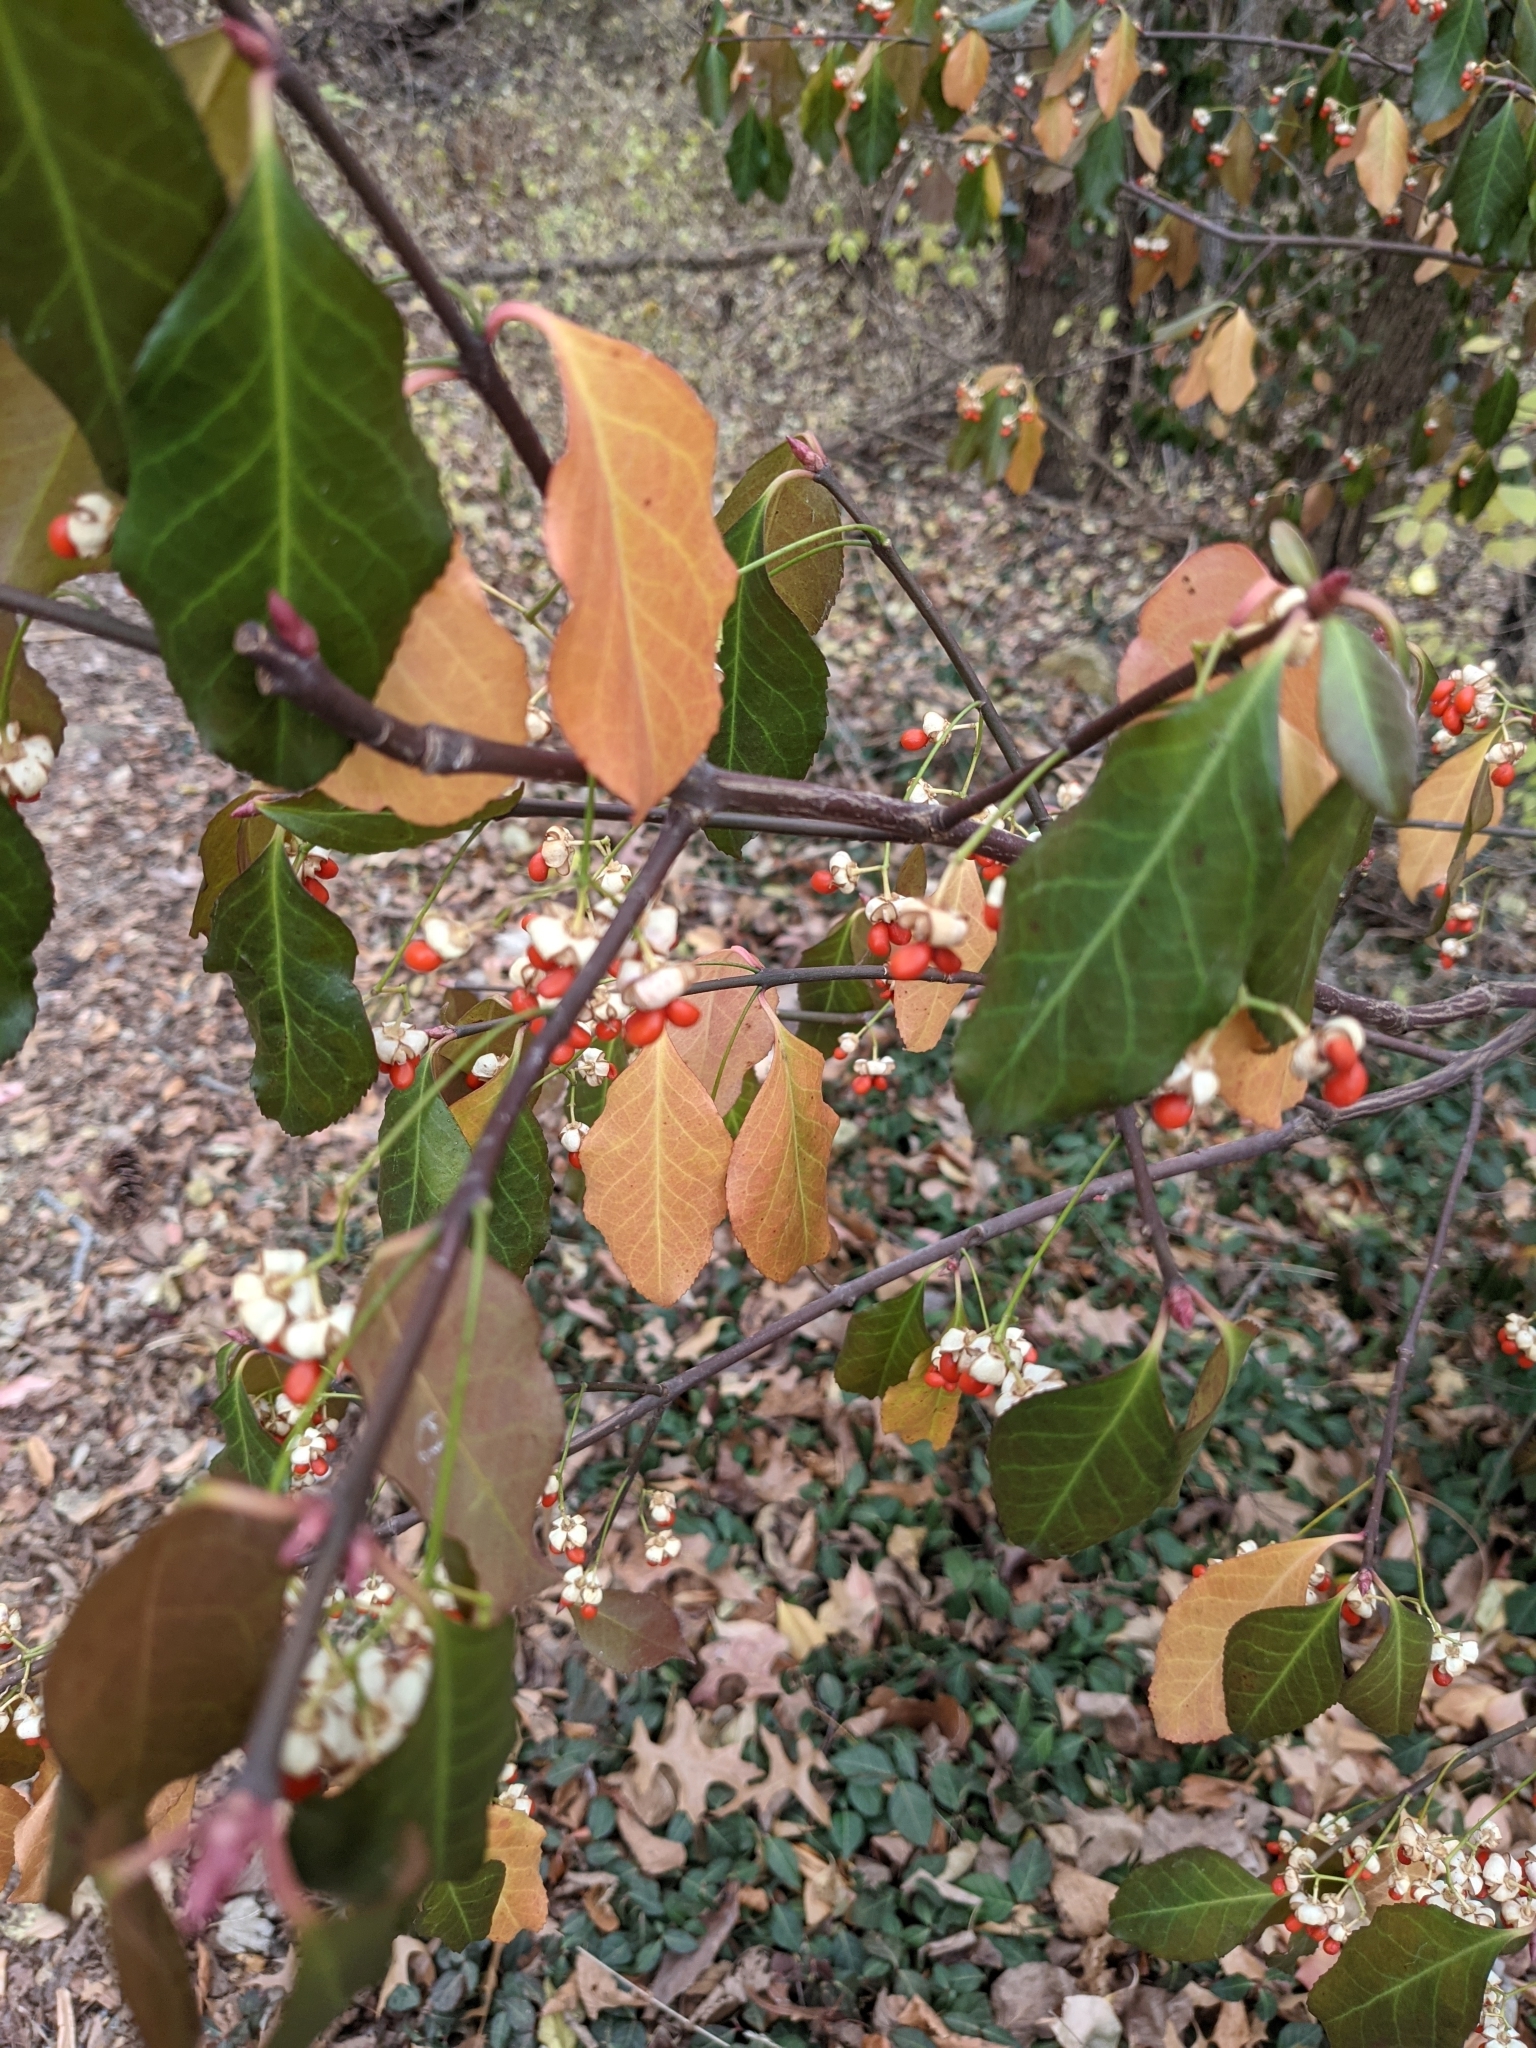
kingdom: Plantae
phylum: Tracheophyta
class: Magnoliopsida
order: Celastrales
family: Celastraceae
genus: Euonymus
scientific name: Euonymus fortunei
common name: Climbing euonymus
